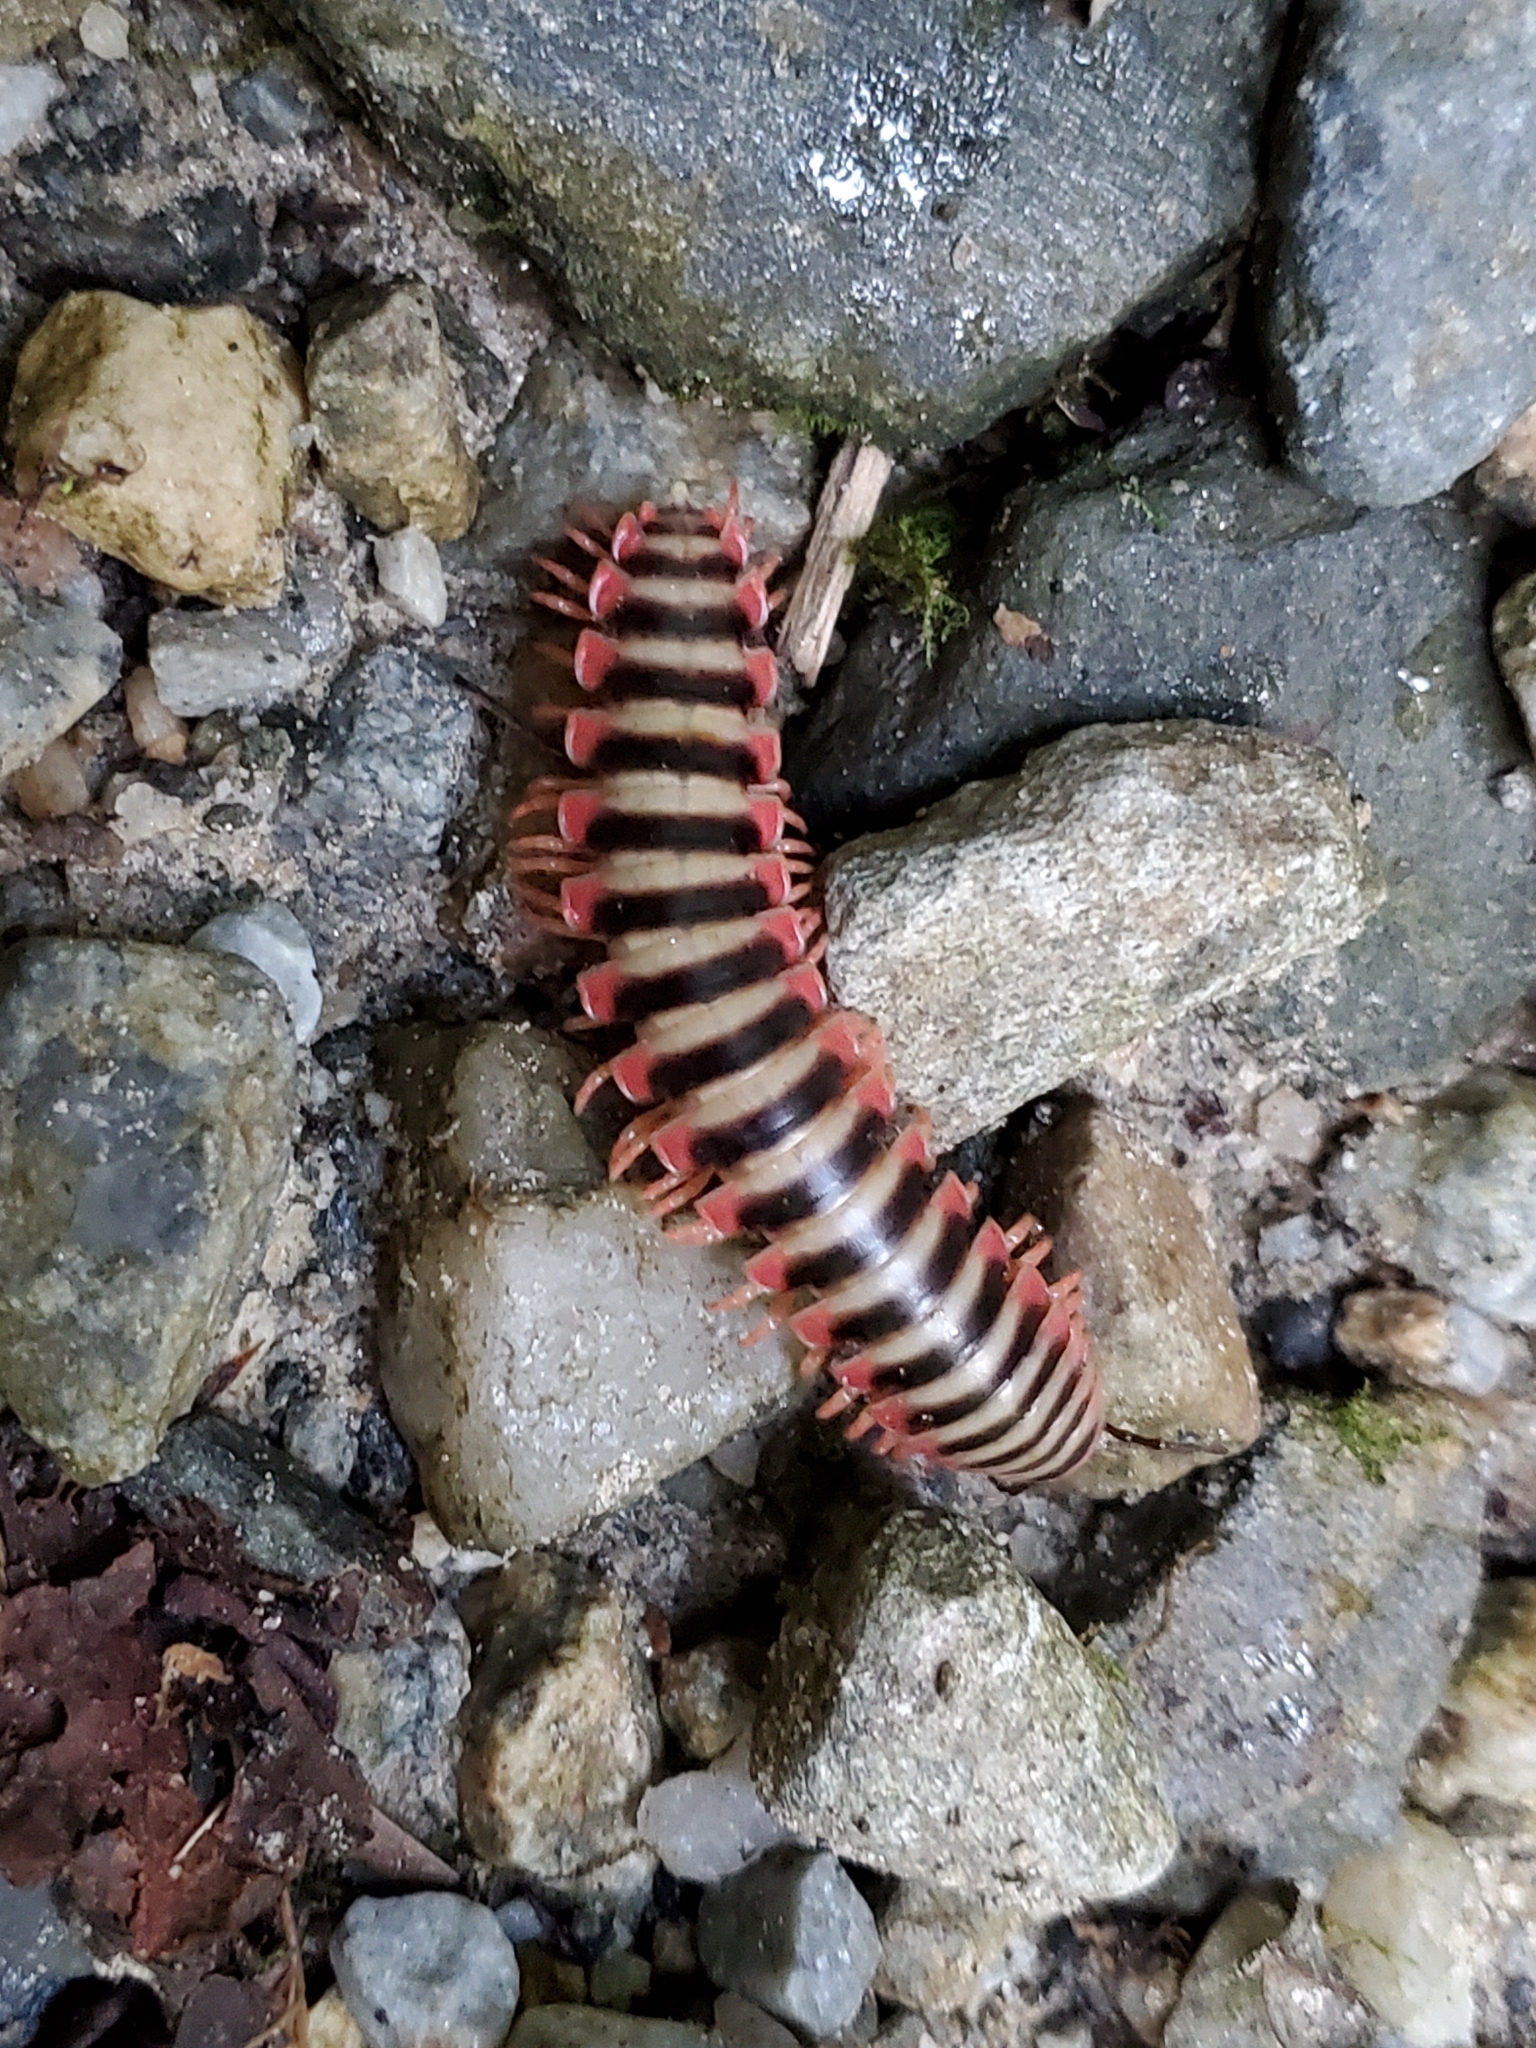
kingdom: Animalia
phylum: Arthropoda
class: Diplopoda
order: Polydesmida
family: Xystodesmidae
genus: Sigmoria
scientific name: Sigmoria nantahalae
